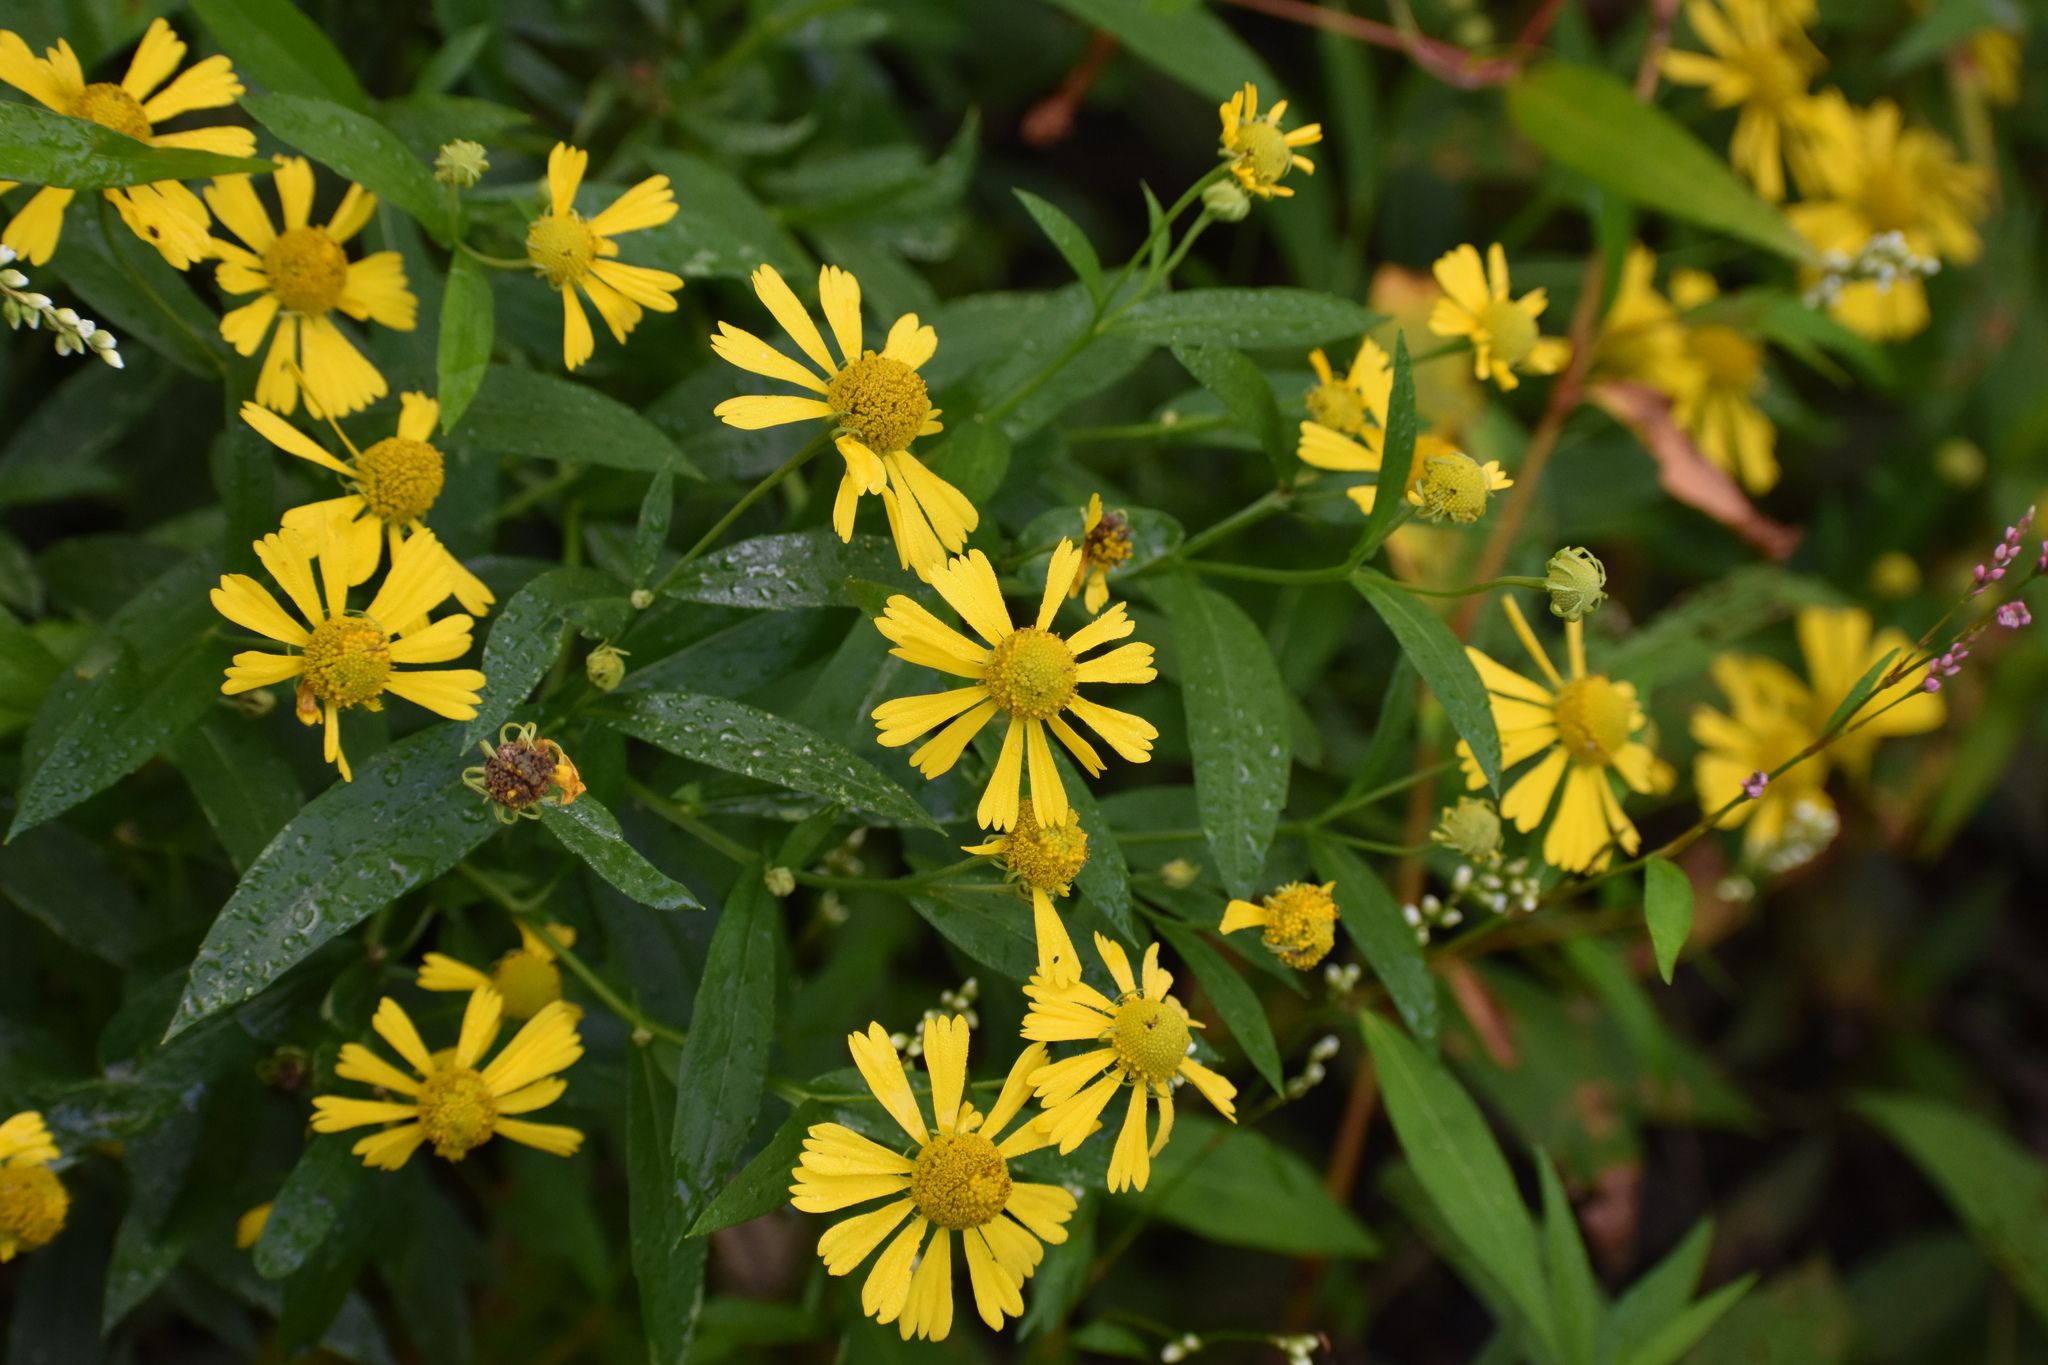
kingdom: Plantae
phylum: Tracheophyta
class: Magnoliopsida
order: Asterales
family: Asteraceae
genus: Helenium
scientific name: Helenium autumnale
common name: Sneezeweed
